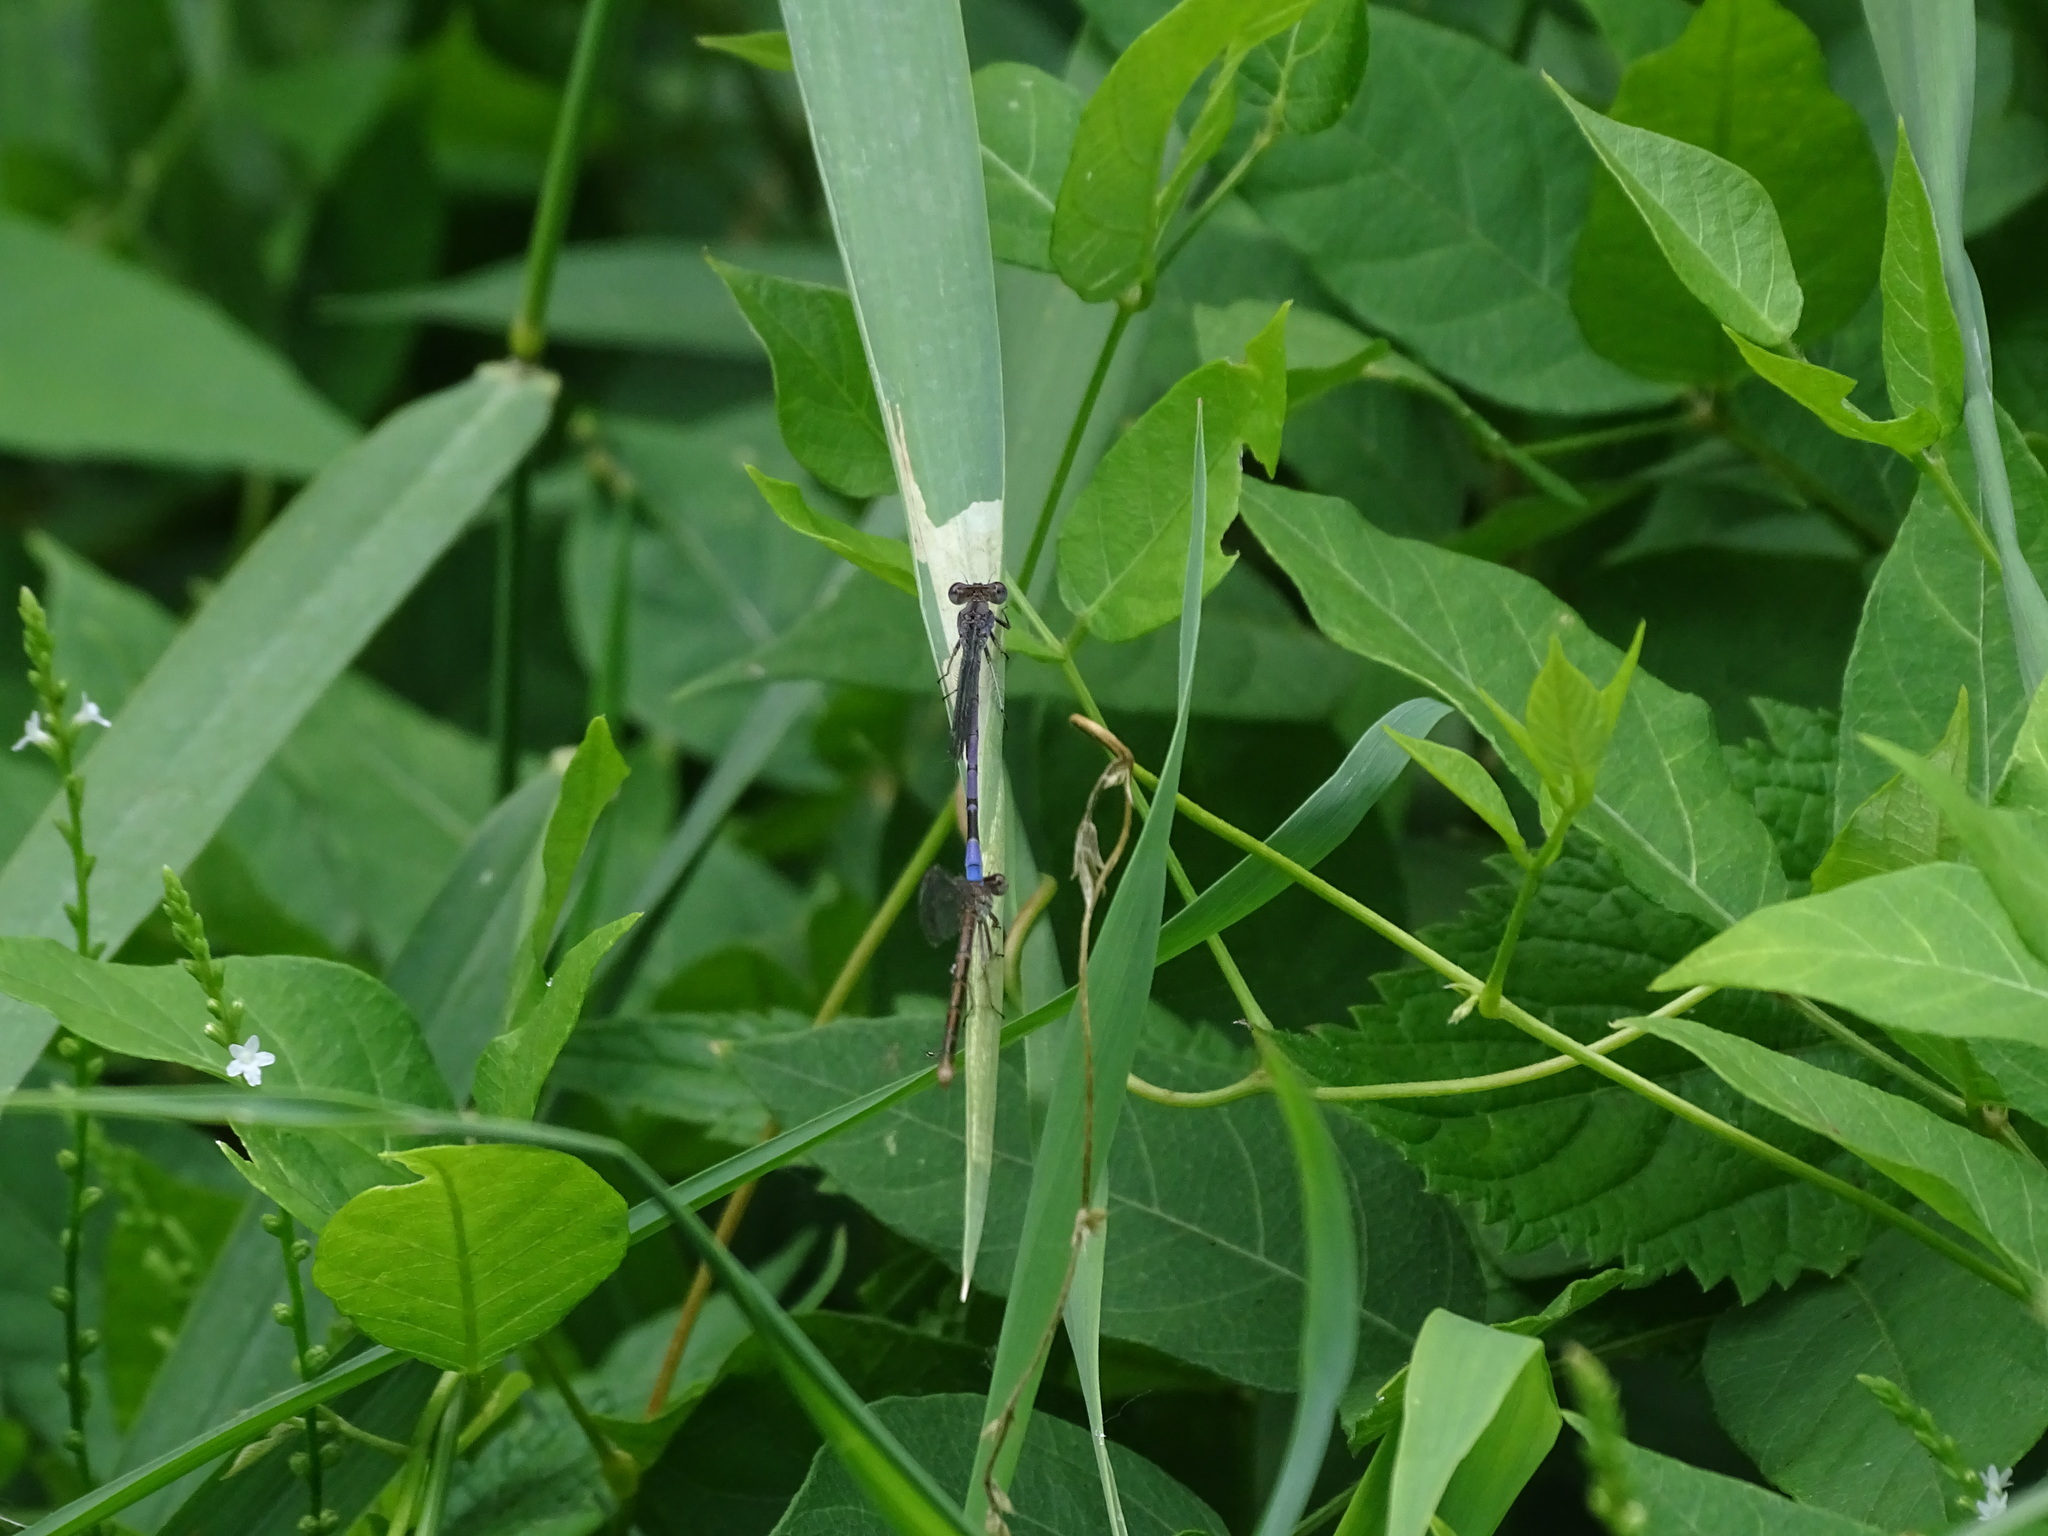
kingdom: Animalia
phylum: Arthropoda
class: Insecta
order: Odonata
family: Coenagrionidae
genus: Argia
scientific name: Argia fumipennis
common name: Variable dancer
